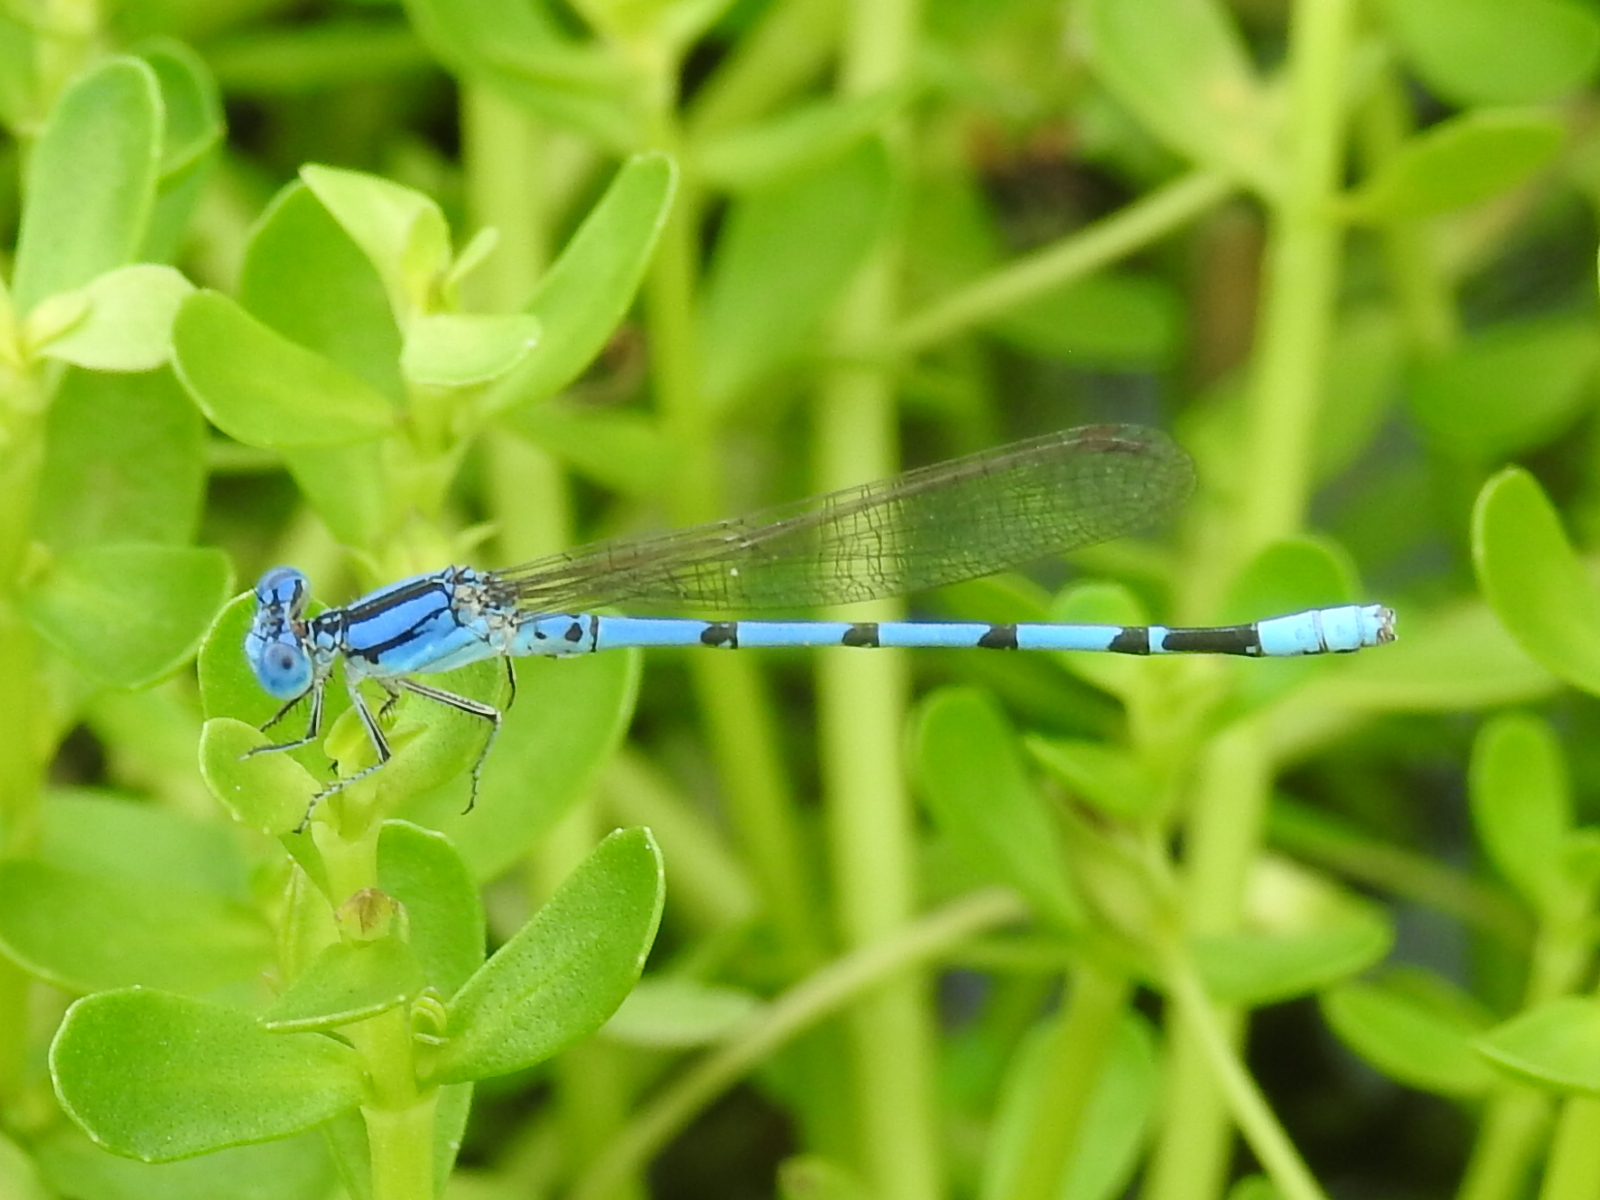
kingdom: Animalia
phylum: Arthropoda
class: Insecta
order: Odonata
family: Coenagrionidae
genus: Argia
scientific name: Argia nahuana
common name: Aztec dancer
